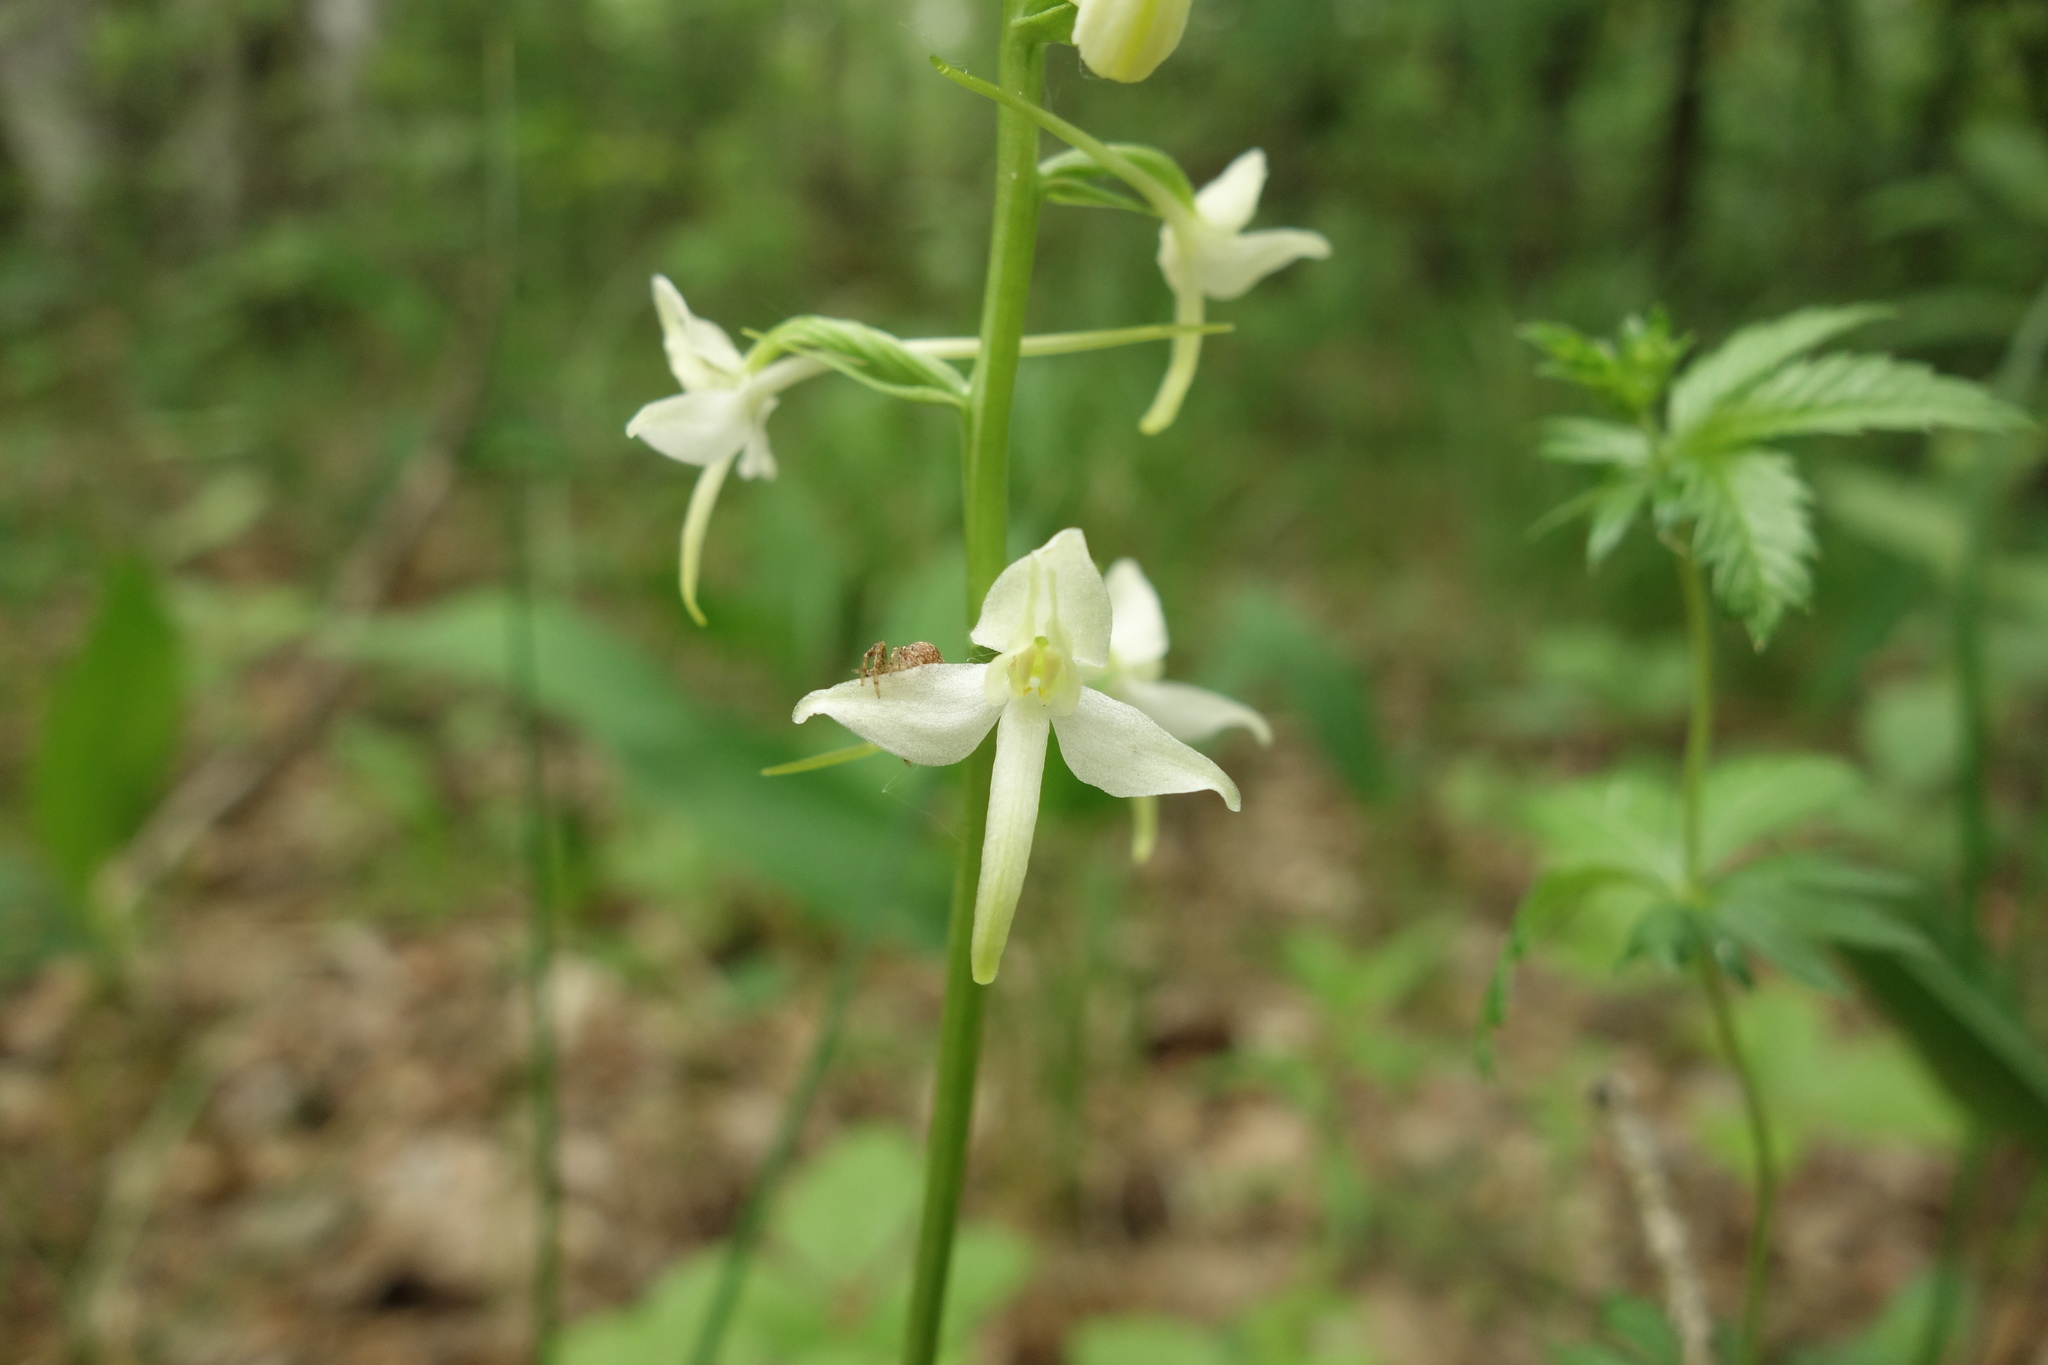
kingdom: Plantae
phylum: Tracheophyta
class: Liliopsida
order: Asparagales
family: Orchidaceae
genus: Platanthera
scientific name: Platanthera bifolia
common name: Lesser butterfly-orchid
